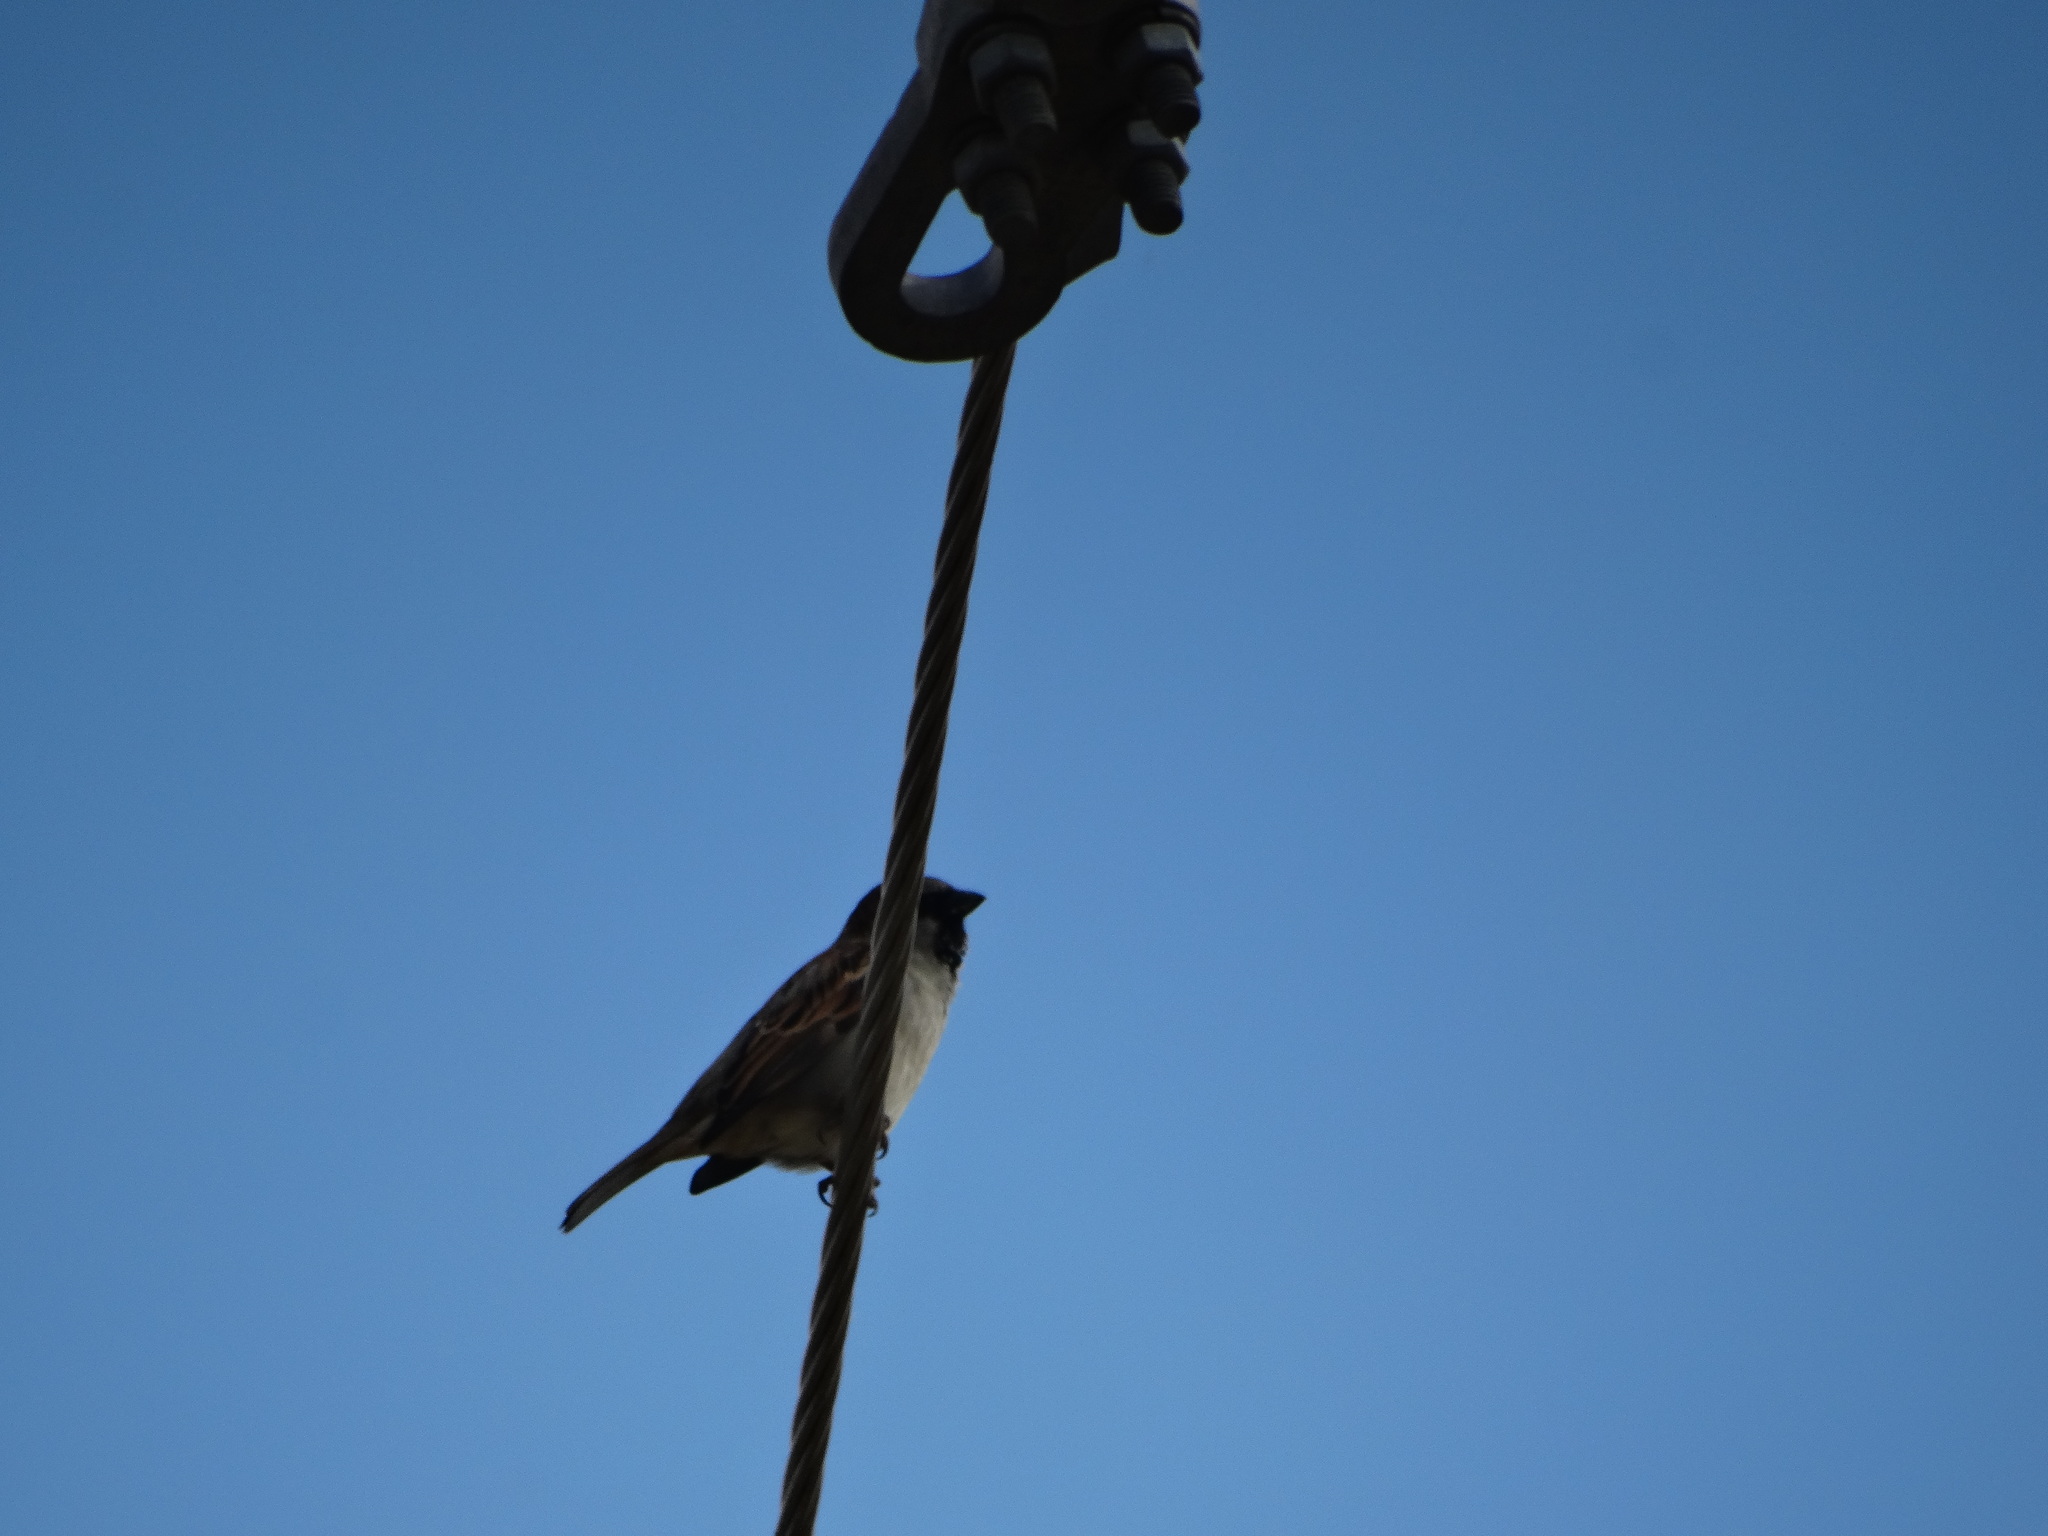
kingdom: Animalia
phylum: Chordata
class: Aves
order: Passeriformes
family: Passeridae
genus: Passer
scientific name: Passer domesticus
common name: House sparrow
